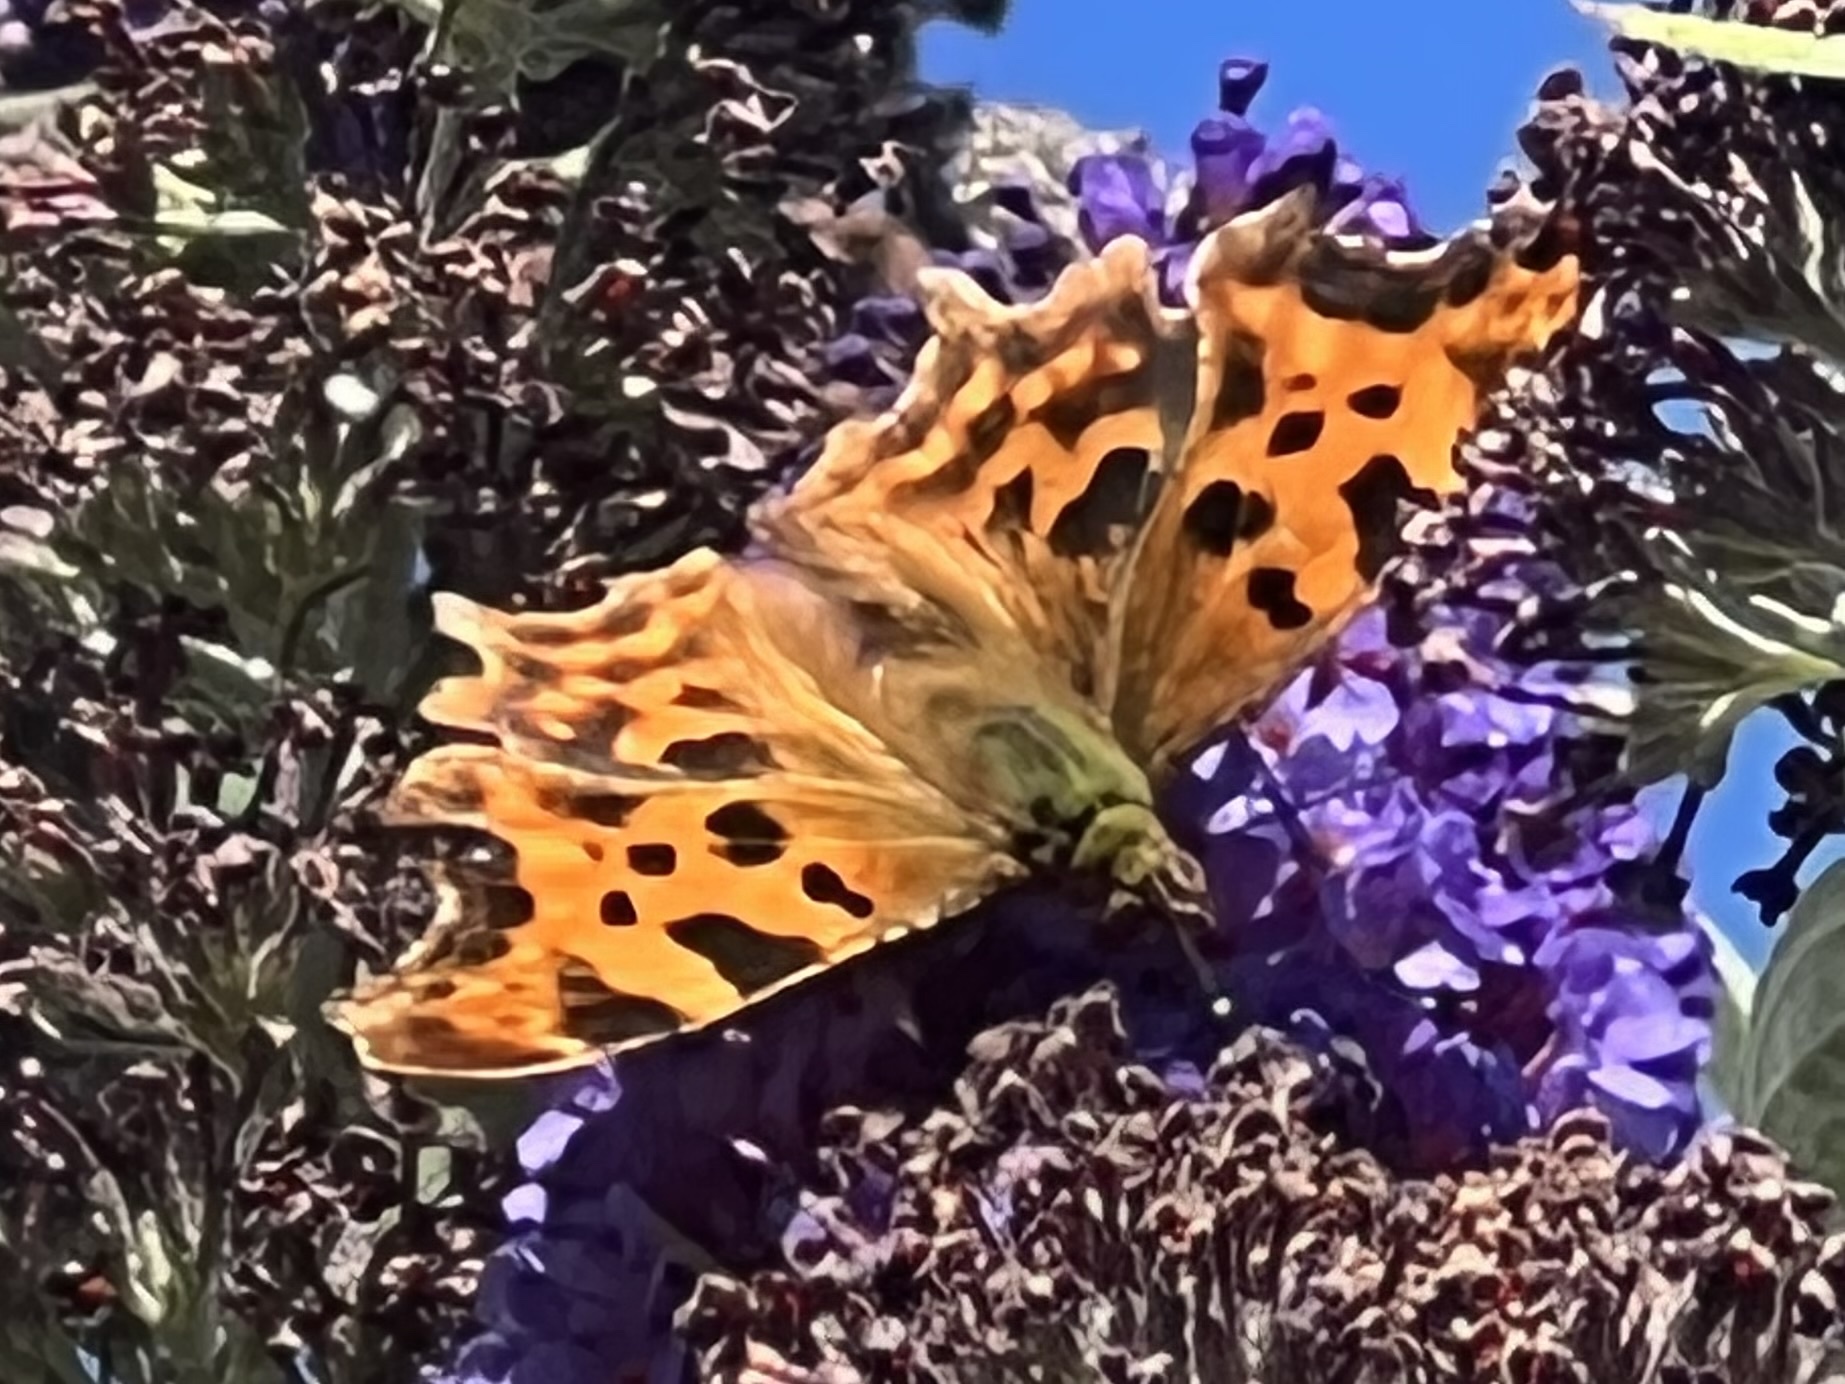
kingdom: Animalia
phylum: Arthropoda
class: Insecta
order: Lepidoptera
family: Nymphalidae
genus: Polygonia
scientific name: Polygonia c-album
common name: Comma
